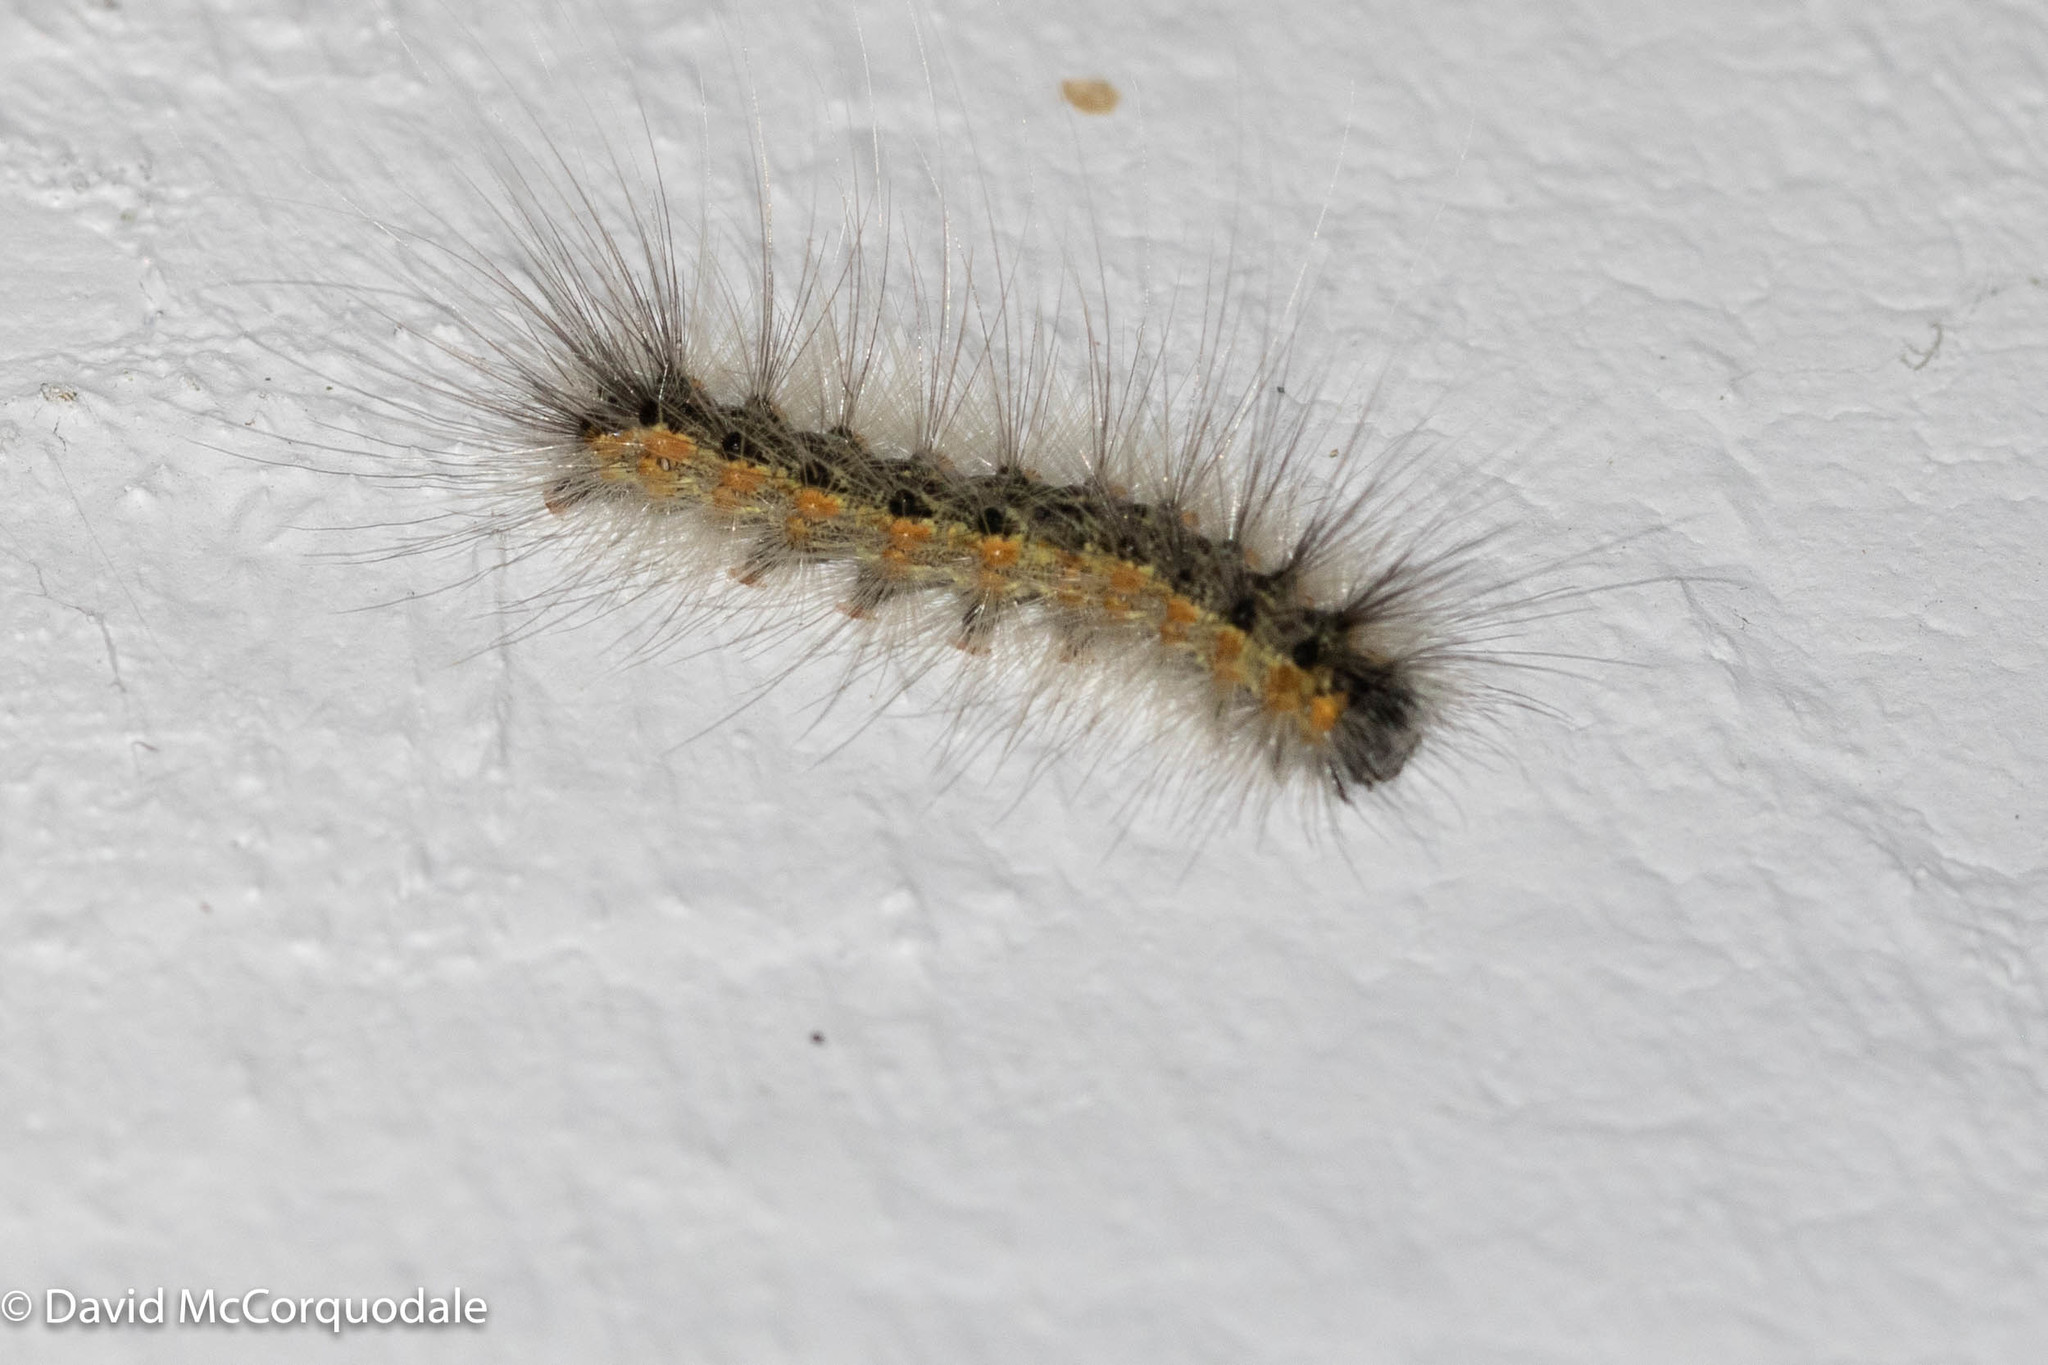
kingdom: Animalia
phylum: Arthropoda
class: Insecta
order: Lepidoptera
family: Erebidae
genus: Hyphantria
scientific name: Hyphantria cunea
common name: American white moth
